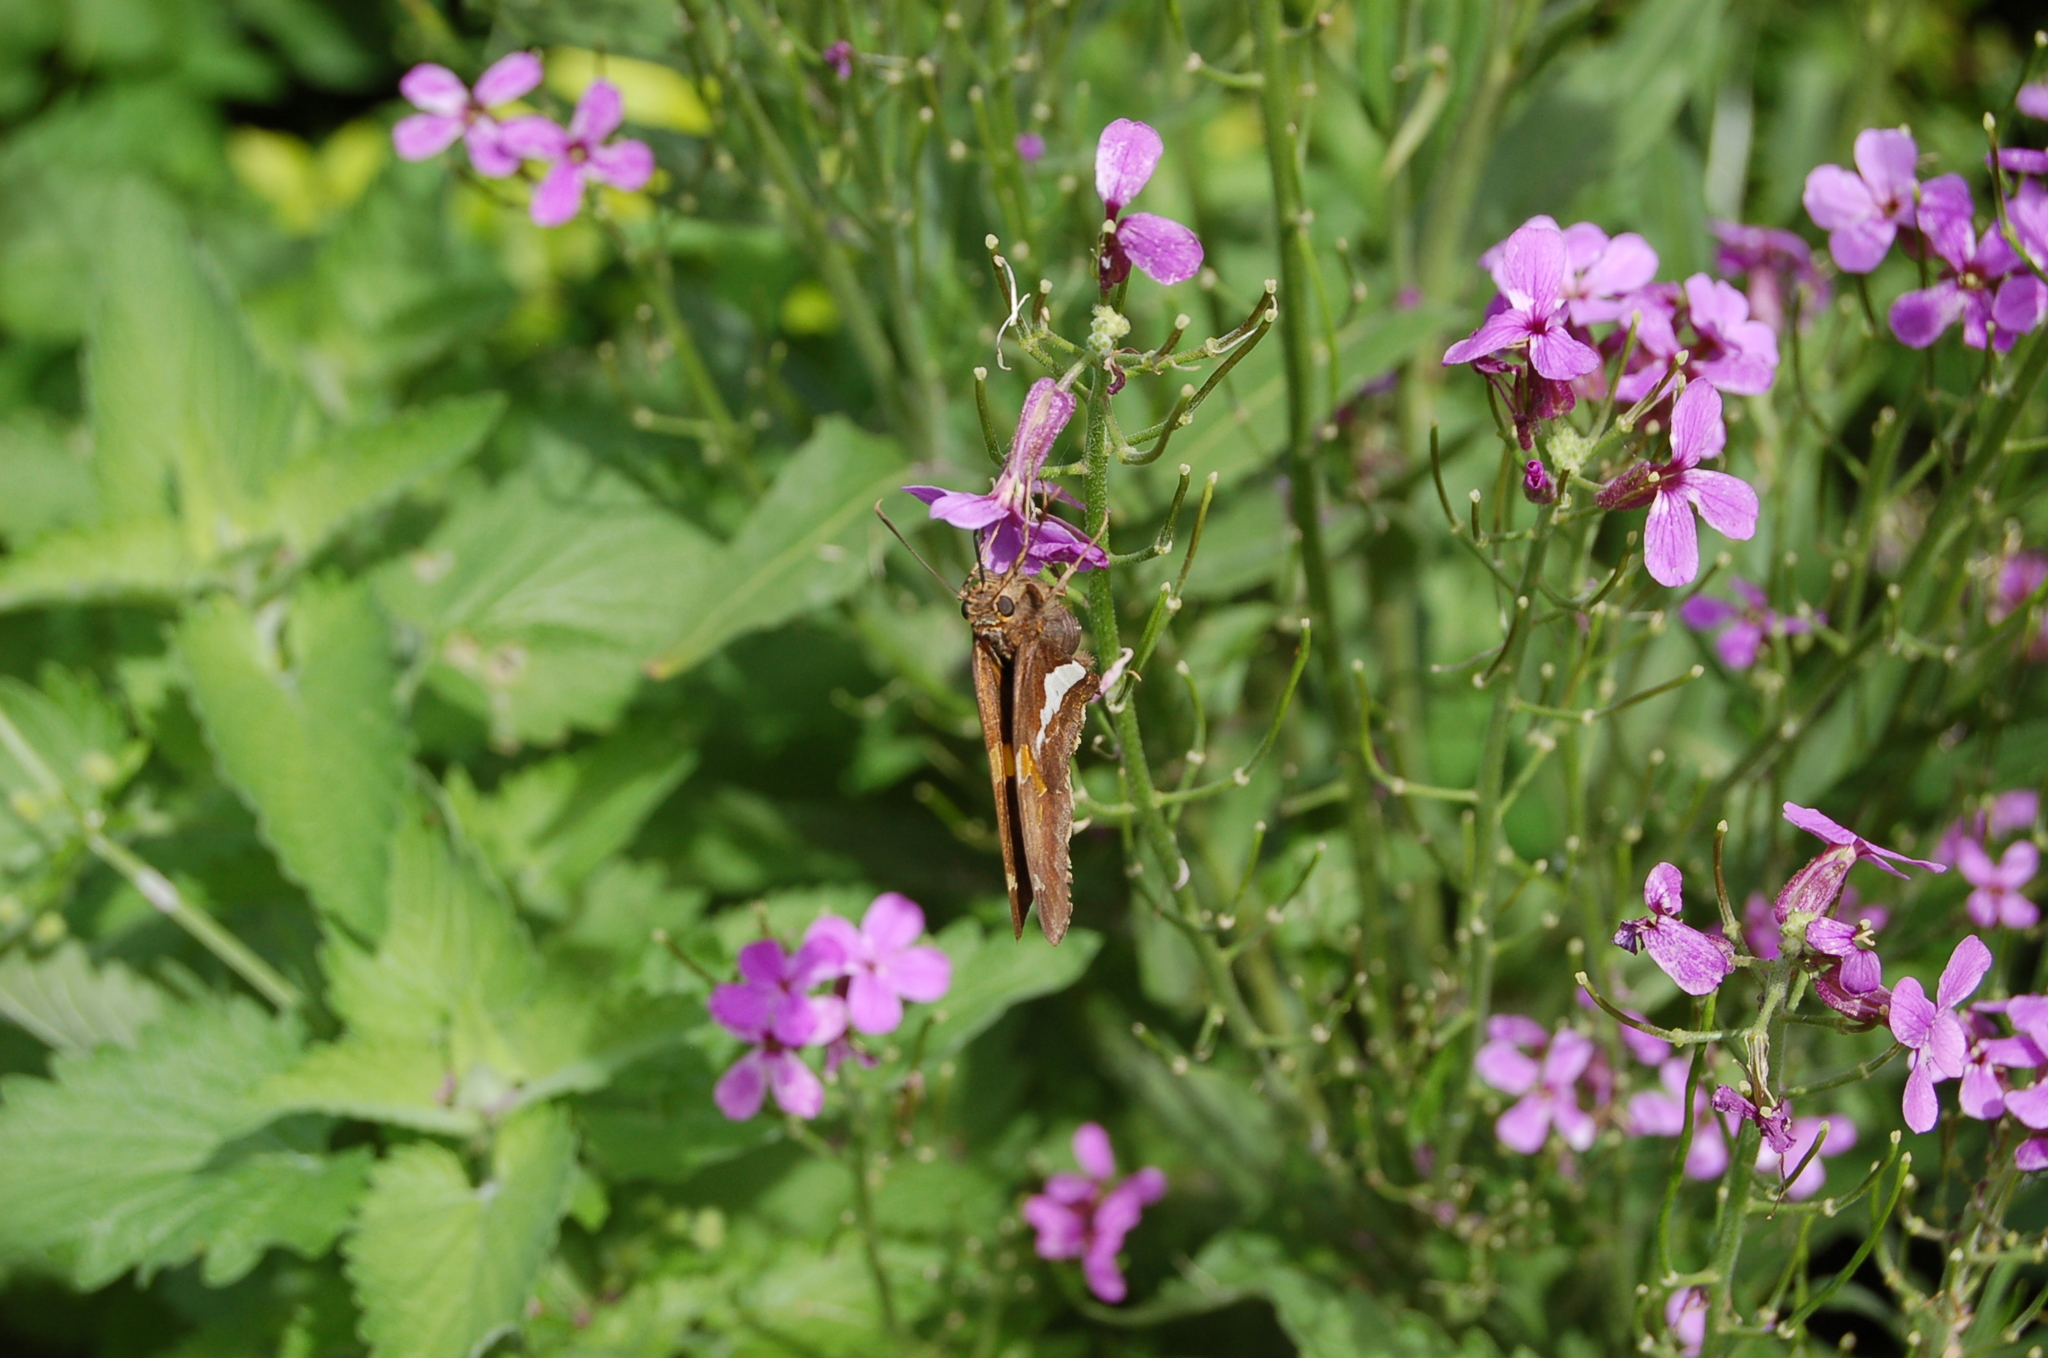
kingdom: Animalia
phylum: Arthropoda
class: Insecta
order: Lepidoptera
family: Hesperiidae
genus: Epargyreus
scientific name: Epargyreus clarus
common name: Silver-spotted skipper
